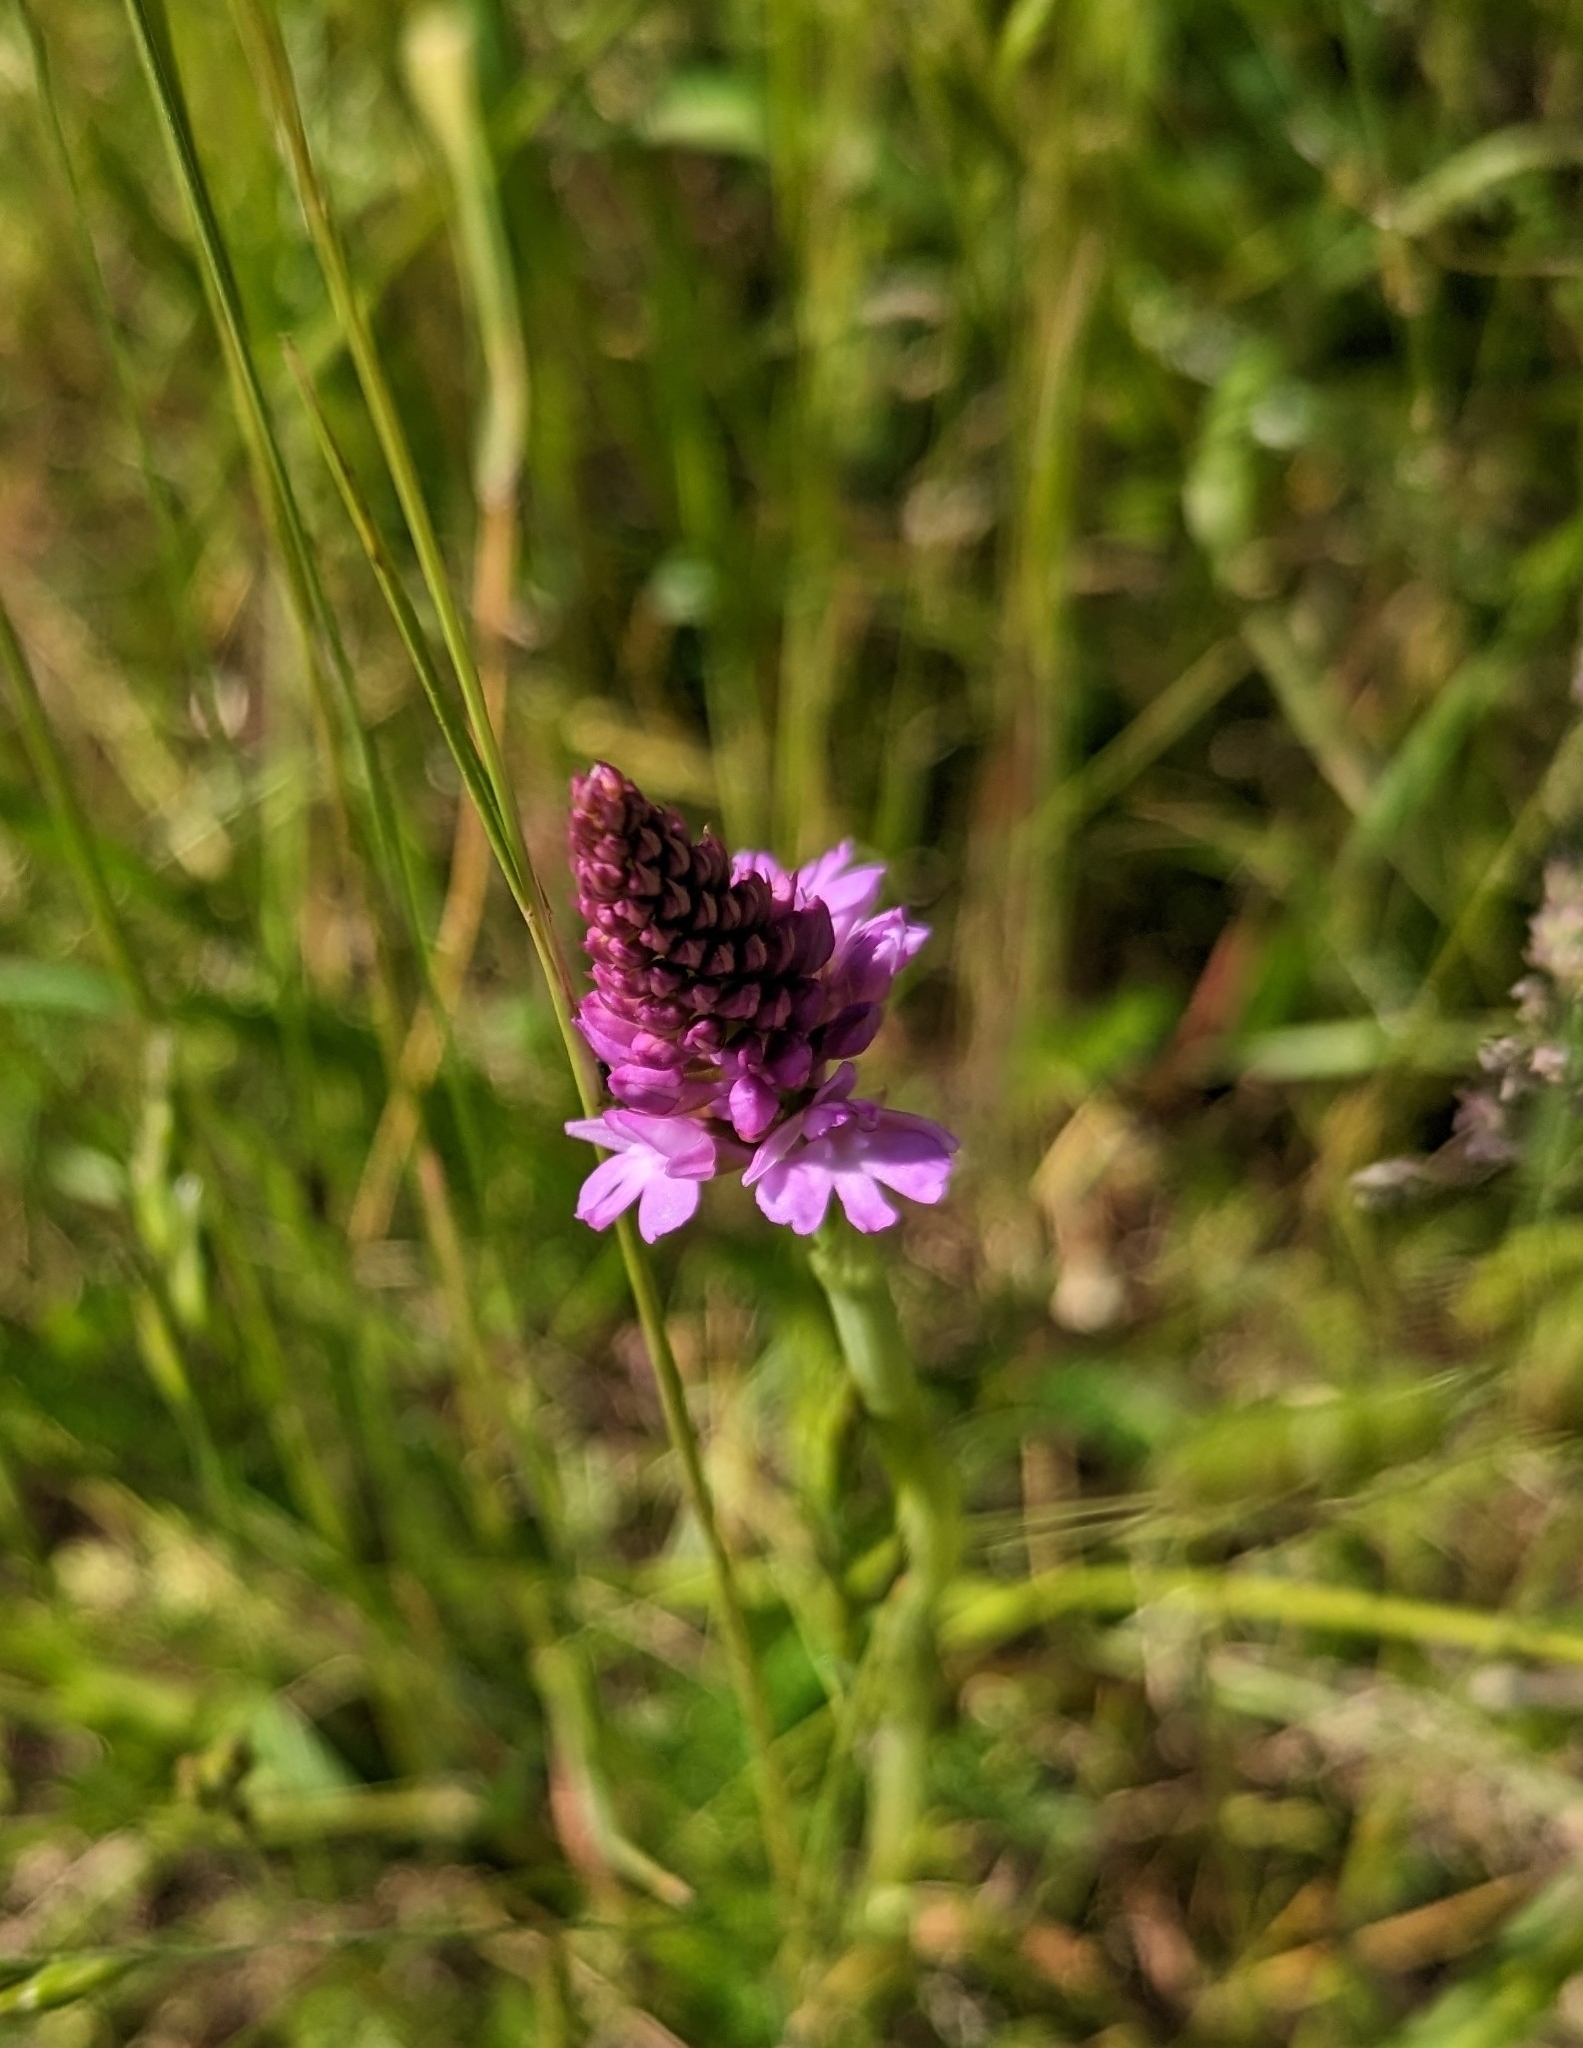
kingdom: Plantae
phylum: Tracheophyta
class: Liliopsida
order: Asparagales
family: Orchidaceae
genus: Anacamptis
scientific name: Anacamptis pyramidalis
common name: Pyramidal orchid
